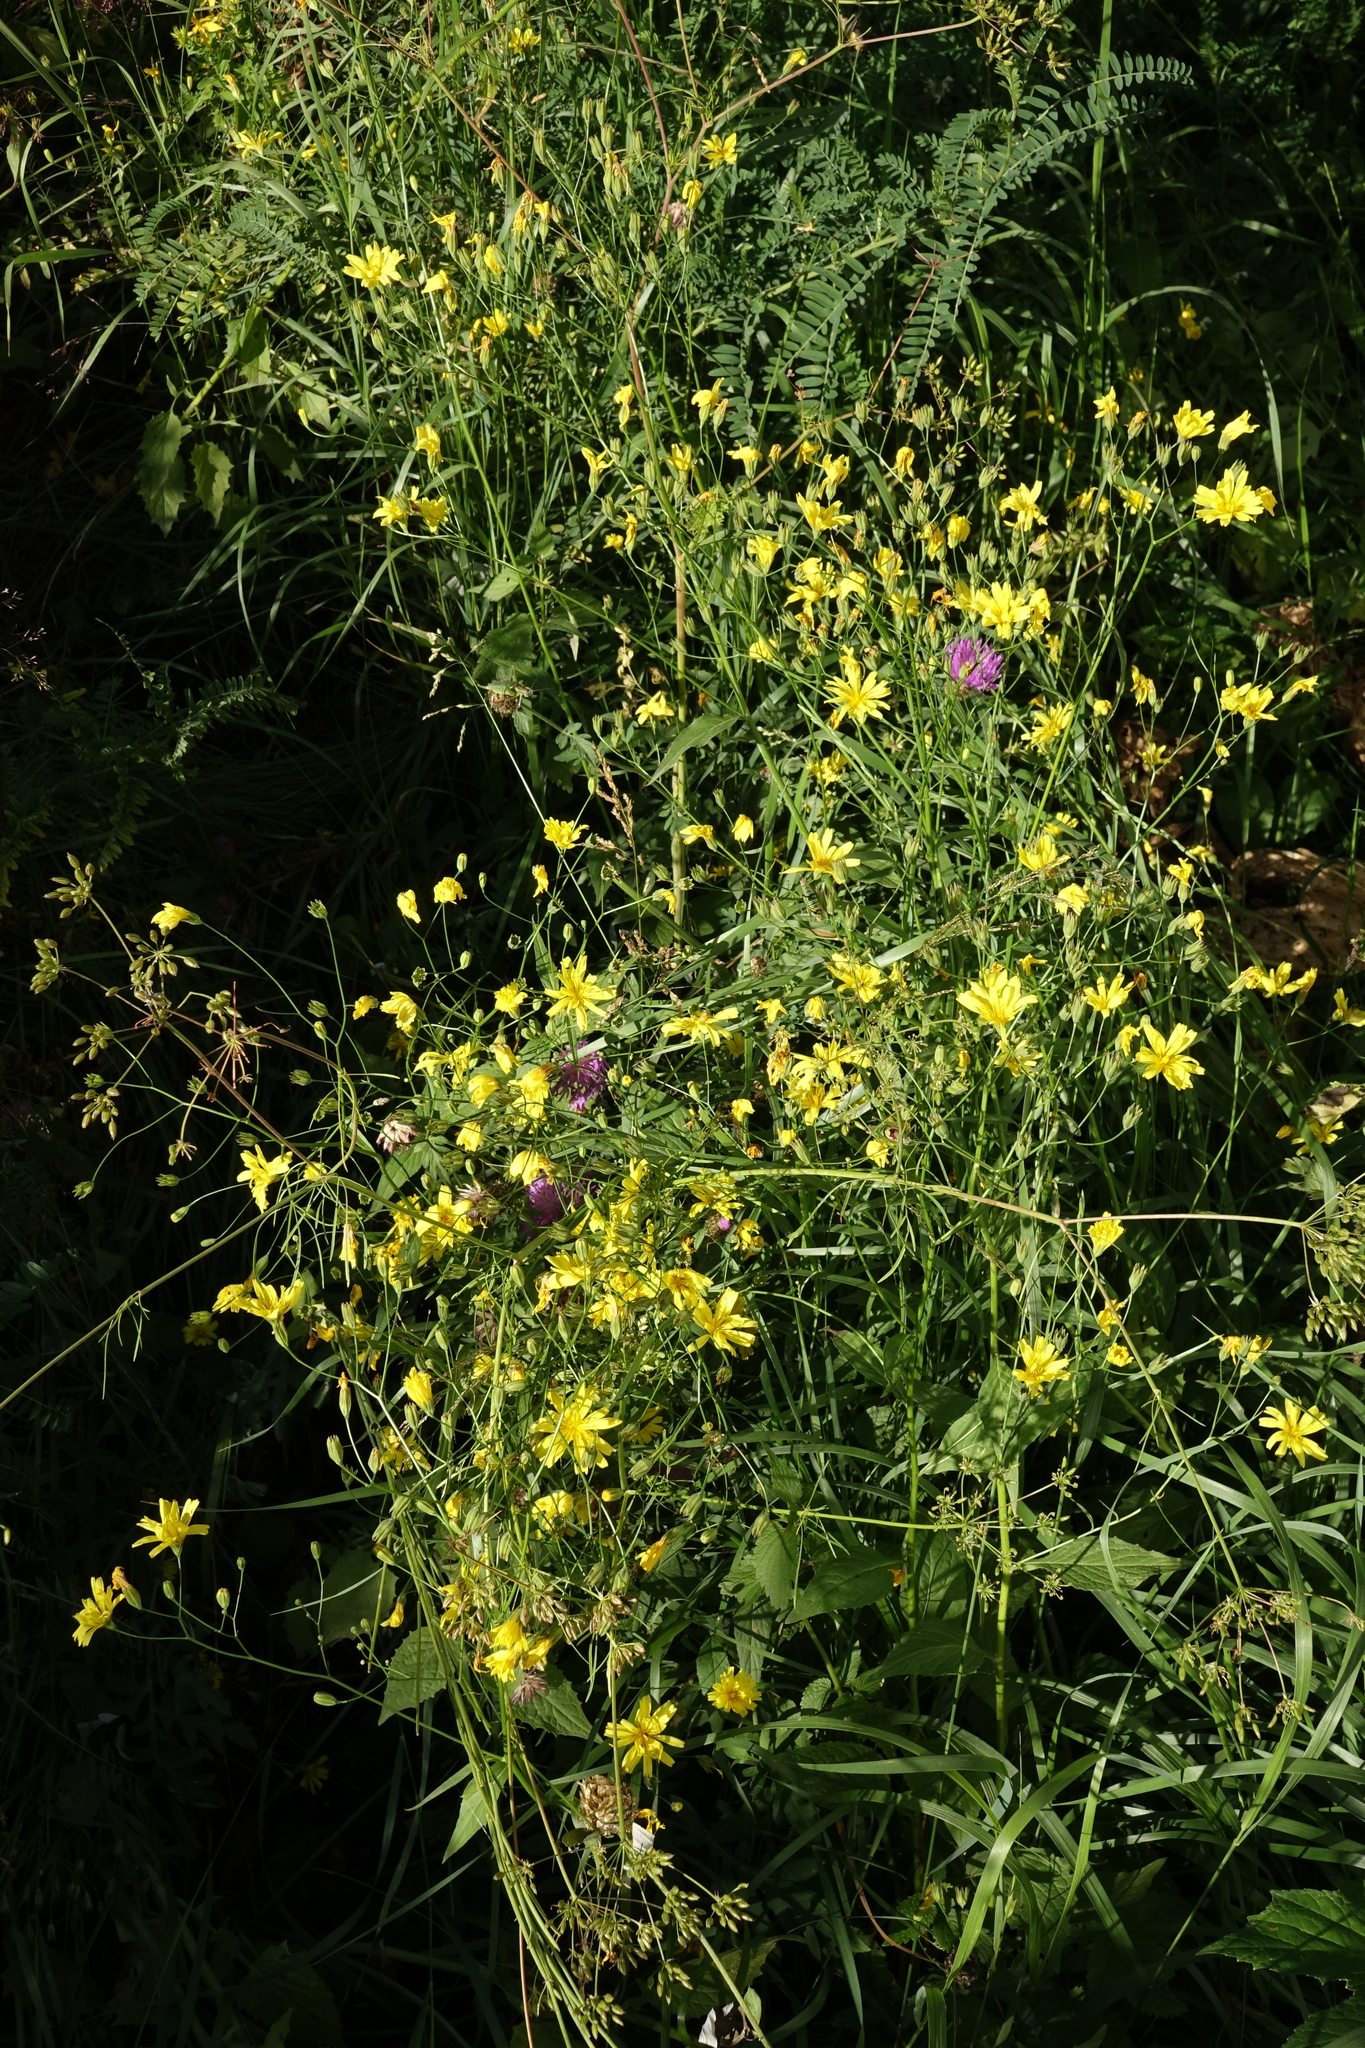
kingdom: Plantae
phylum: Tracheophyta
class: Magnoliopsida
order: Asterales
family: Asteraceae
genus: Lapsana
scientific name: Lapsana communis
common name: Nipplewort
